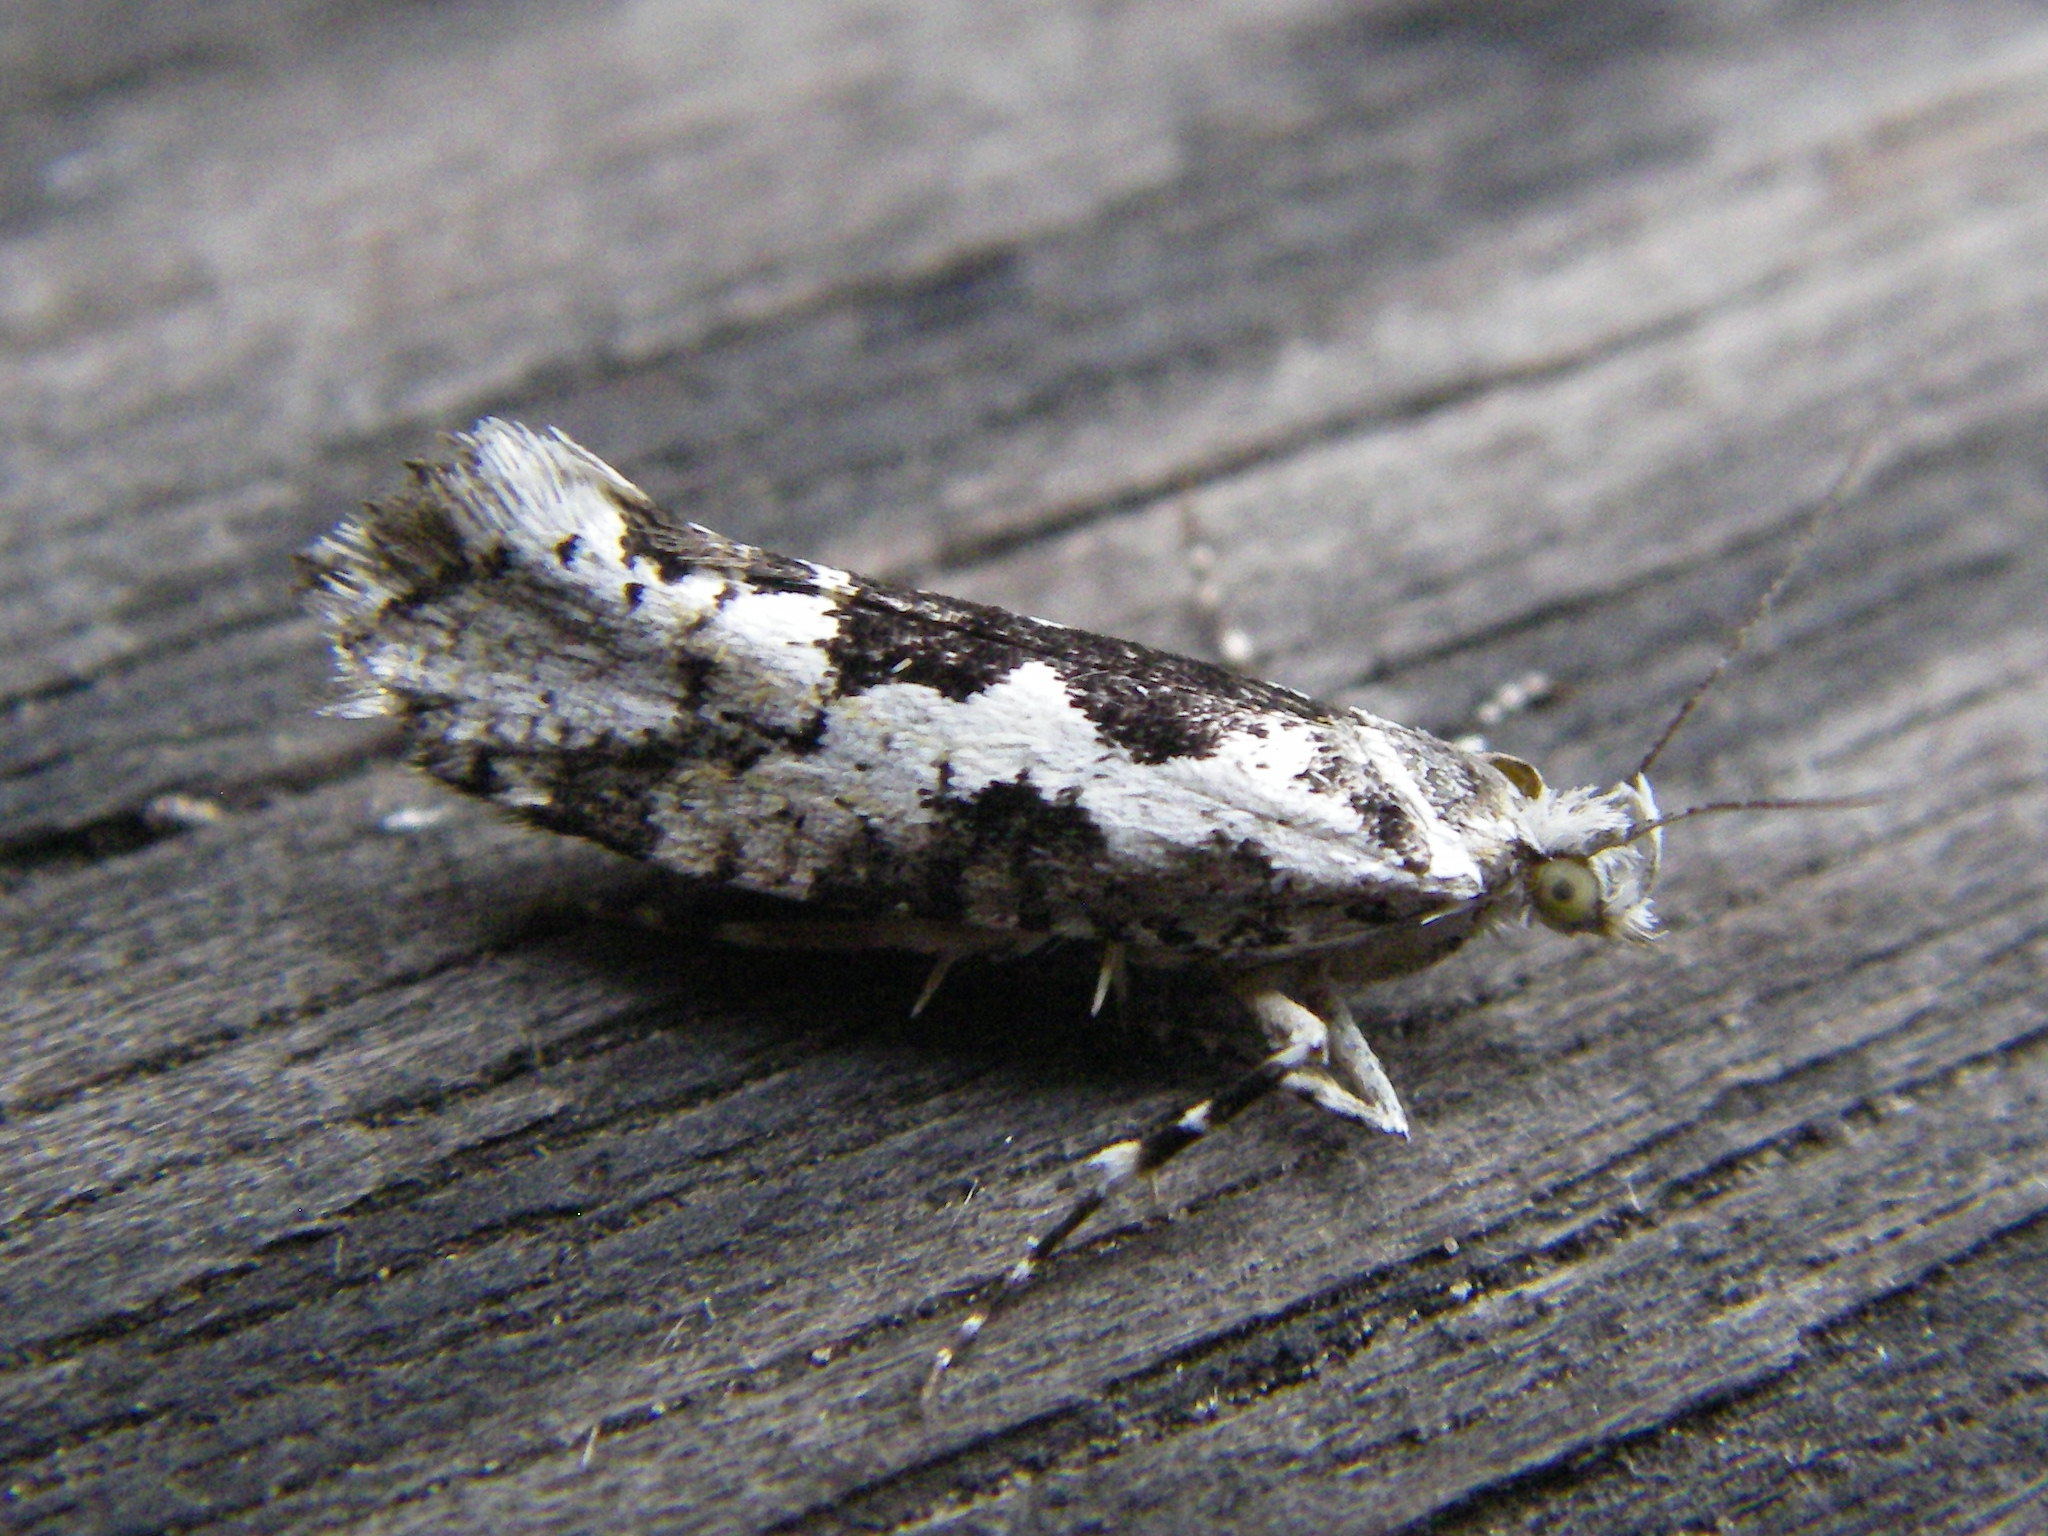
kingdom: Animalia
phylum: Arthropoda
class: Insecta
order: Lepidoptera
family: Plutellidae
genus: Ypsolophus
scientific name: Ypsolophus sequella
